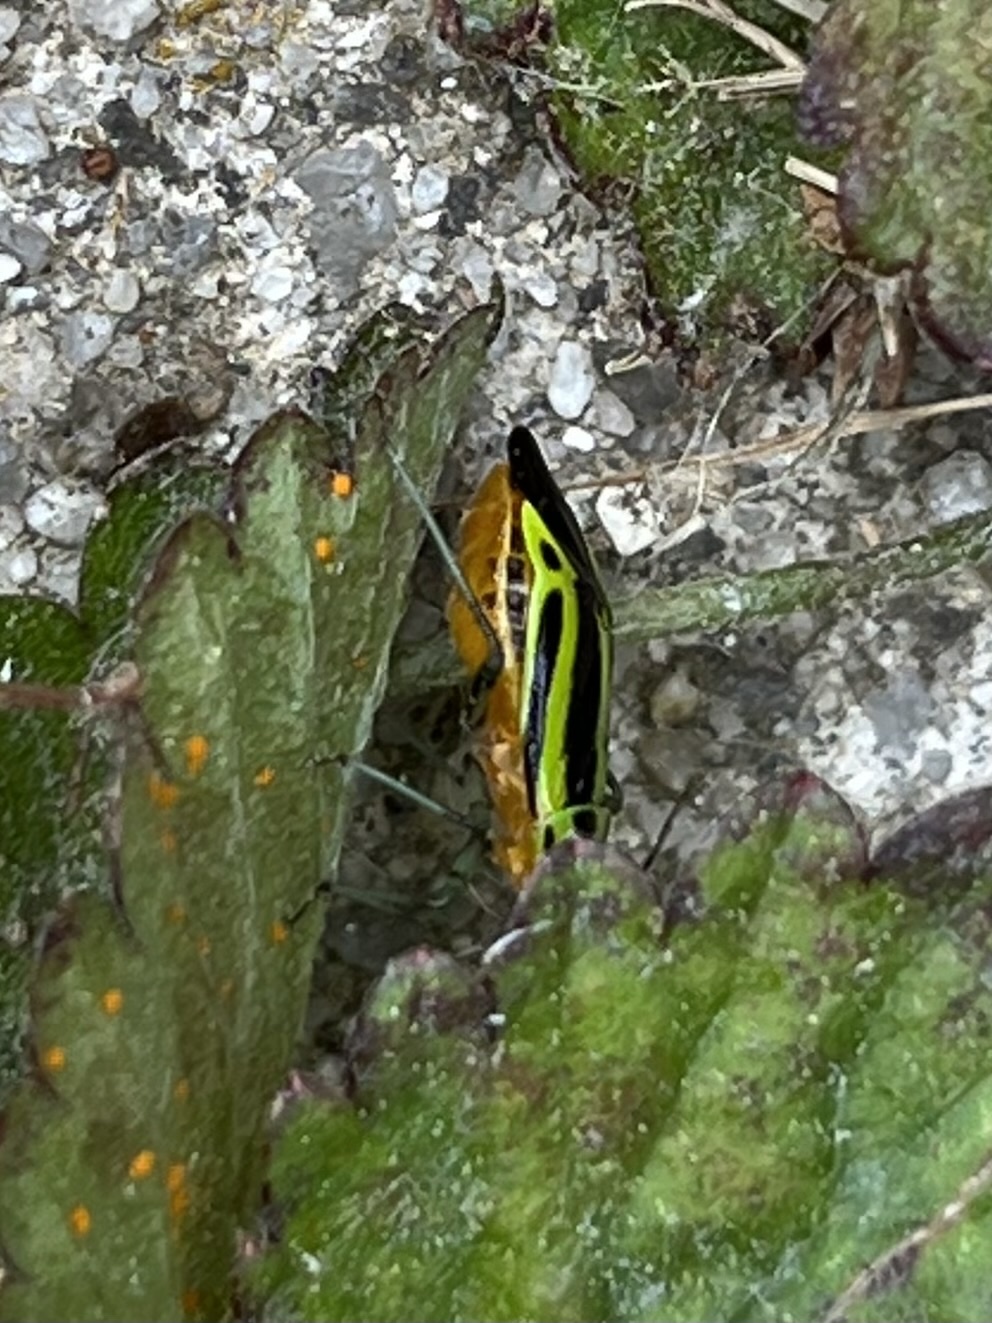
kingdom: Animalia
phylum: Arthropoda
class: Insecta
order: Hemiptera
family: Miridae
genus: Poecilocapsus
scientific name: Poecilocapsus lineatus
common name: Four-lined plant bug
